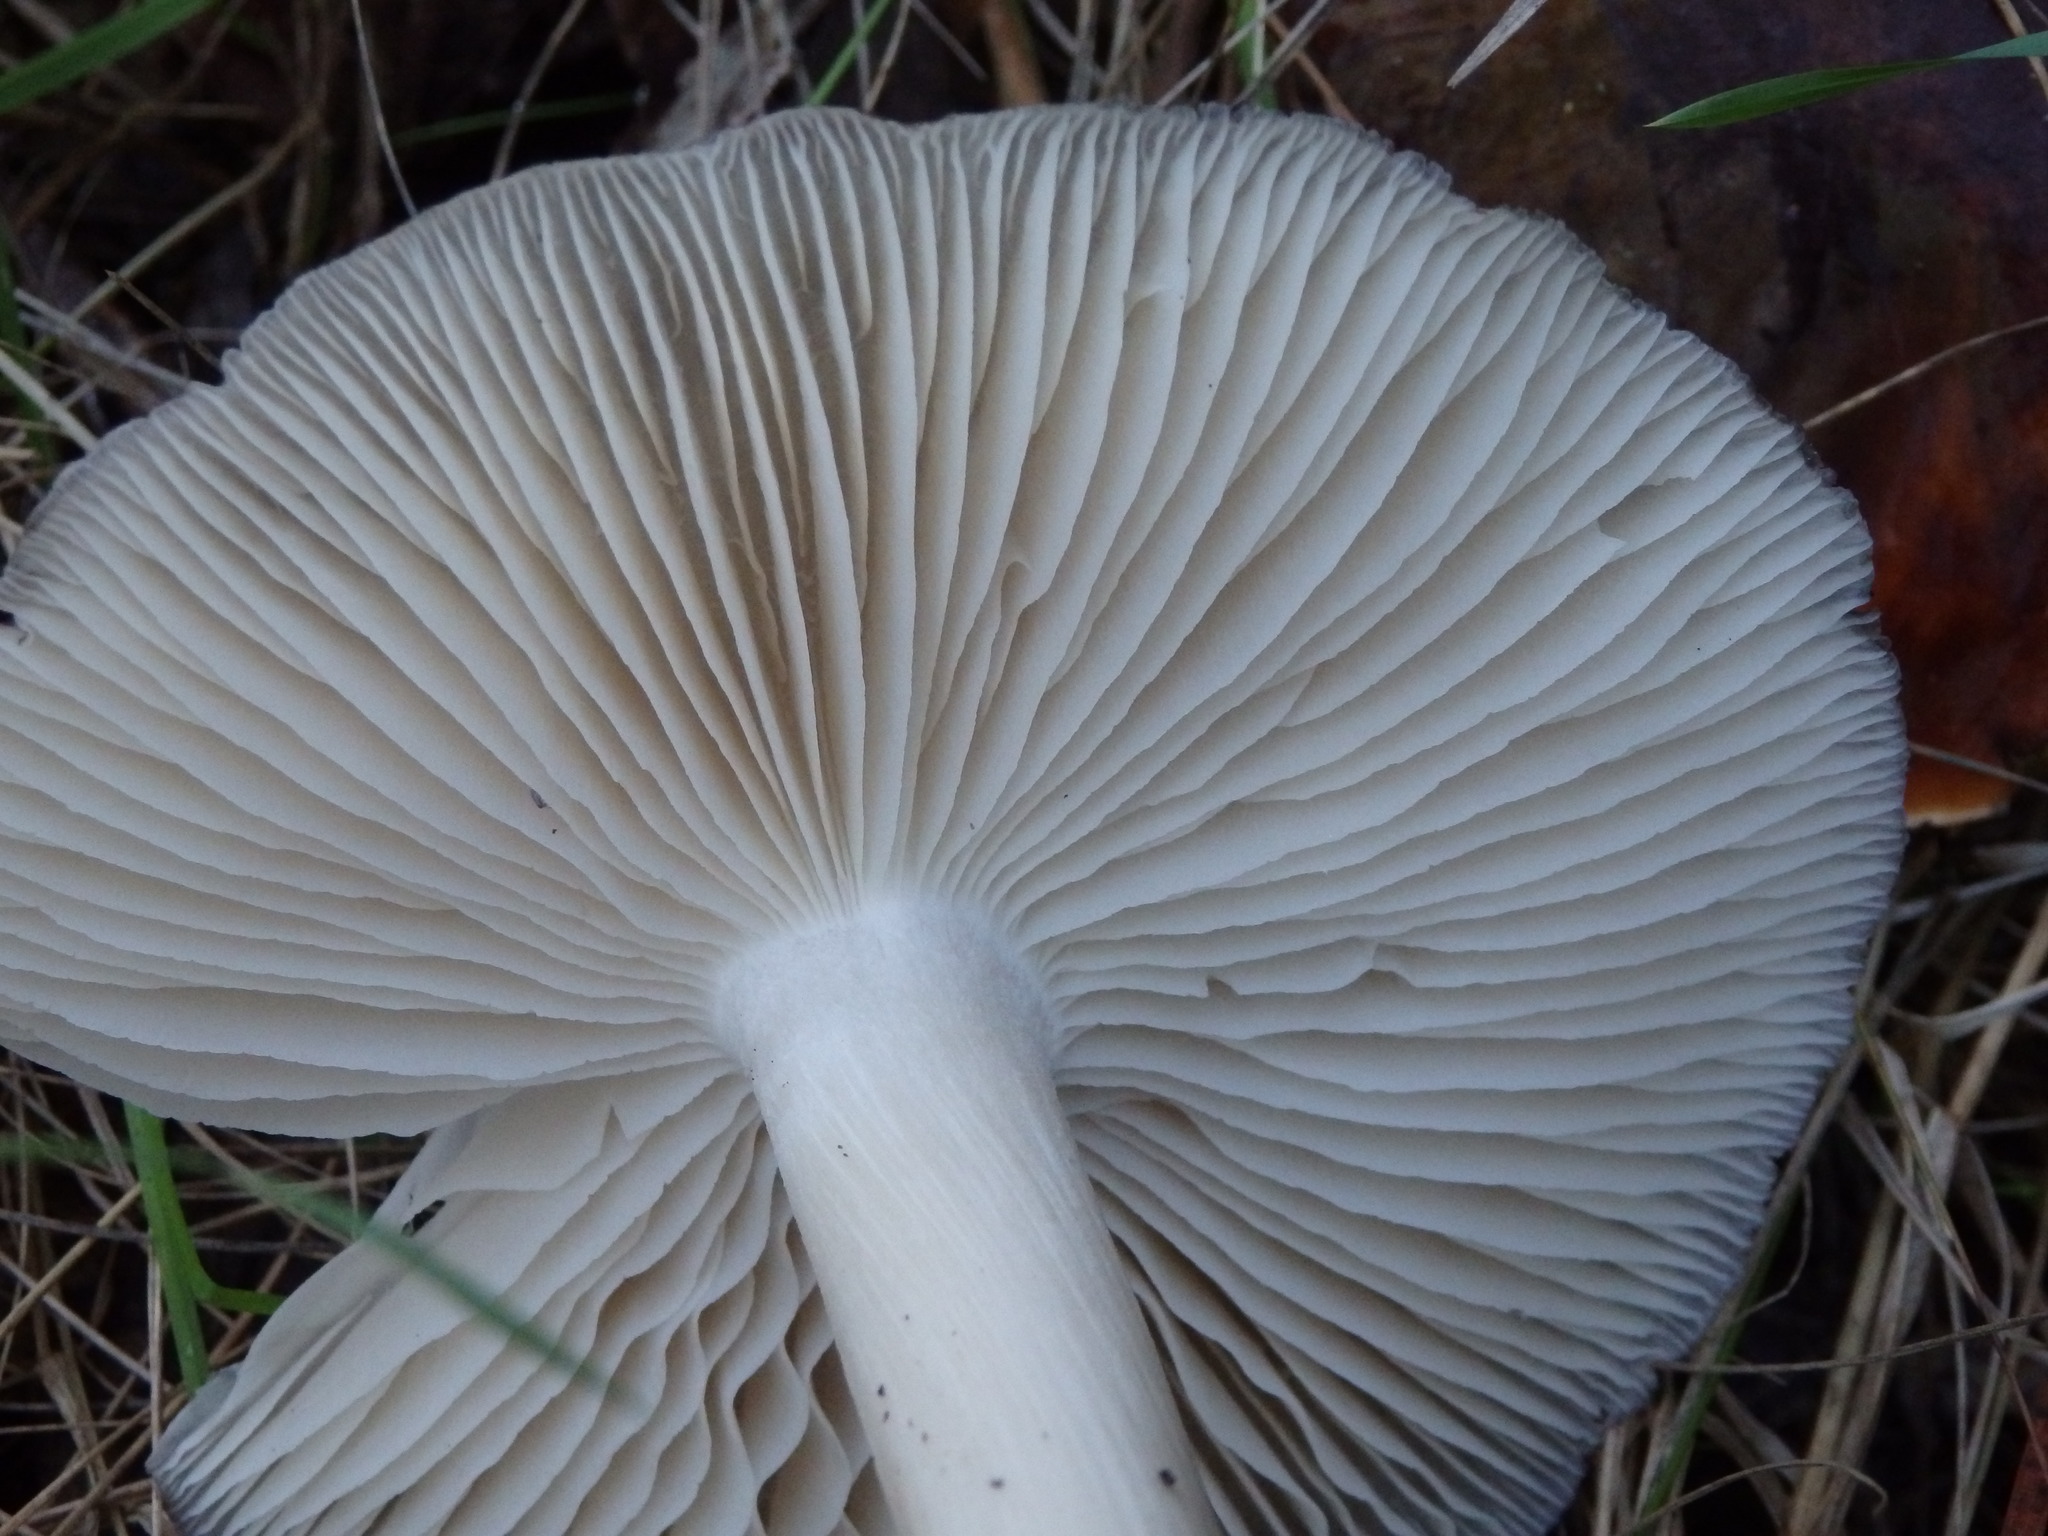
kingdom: Fungi
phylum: Basidiomycota
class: Agaricomycetes
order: Agaricales
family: Tricholomataceae
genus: Megacollybia
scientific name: Megacollybia platyphylla
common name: Whitelaced shank
